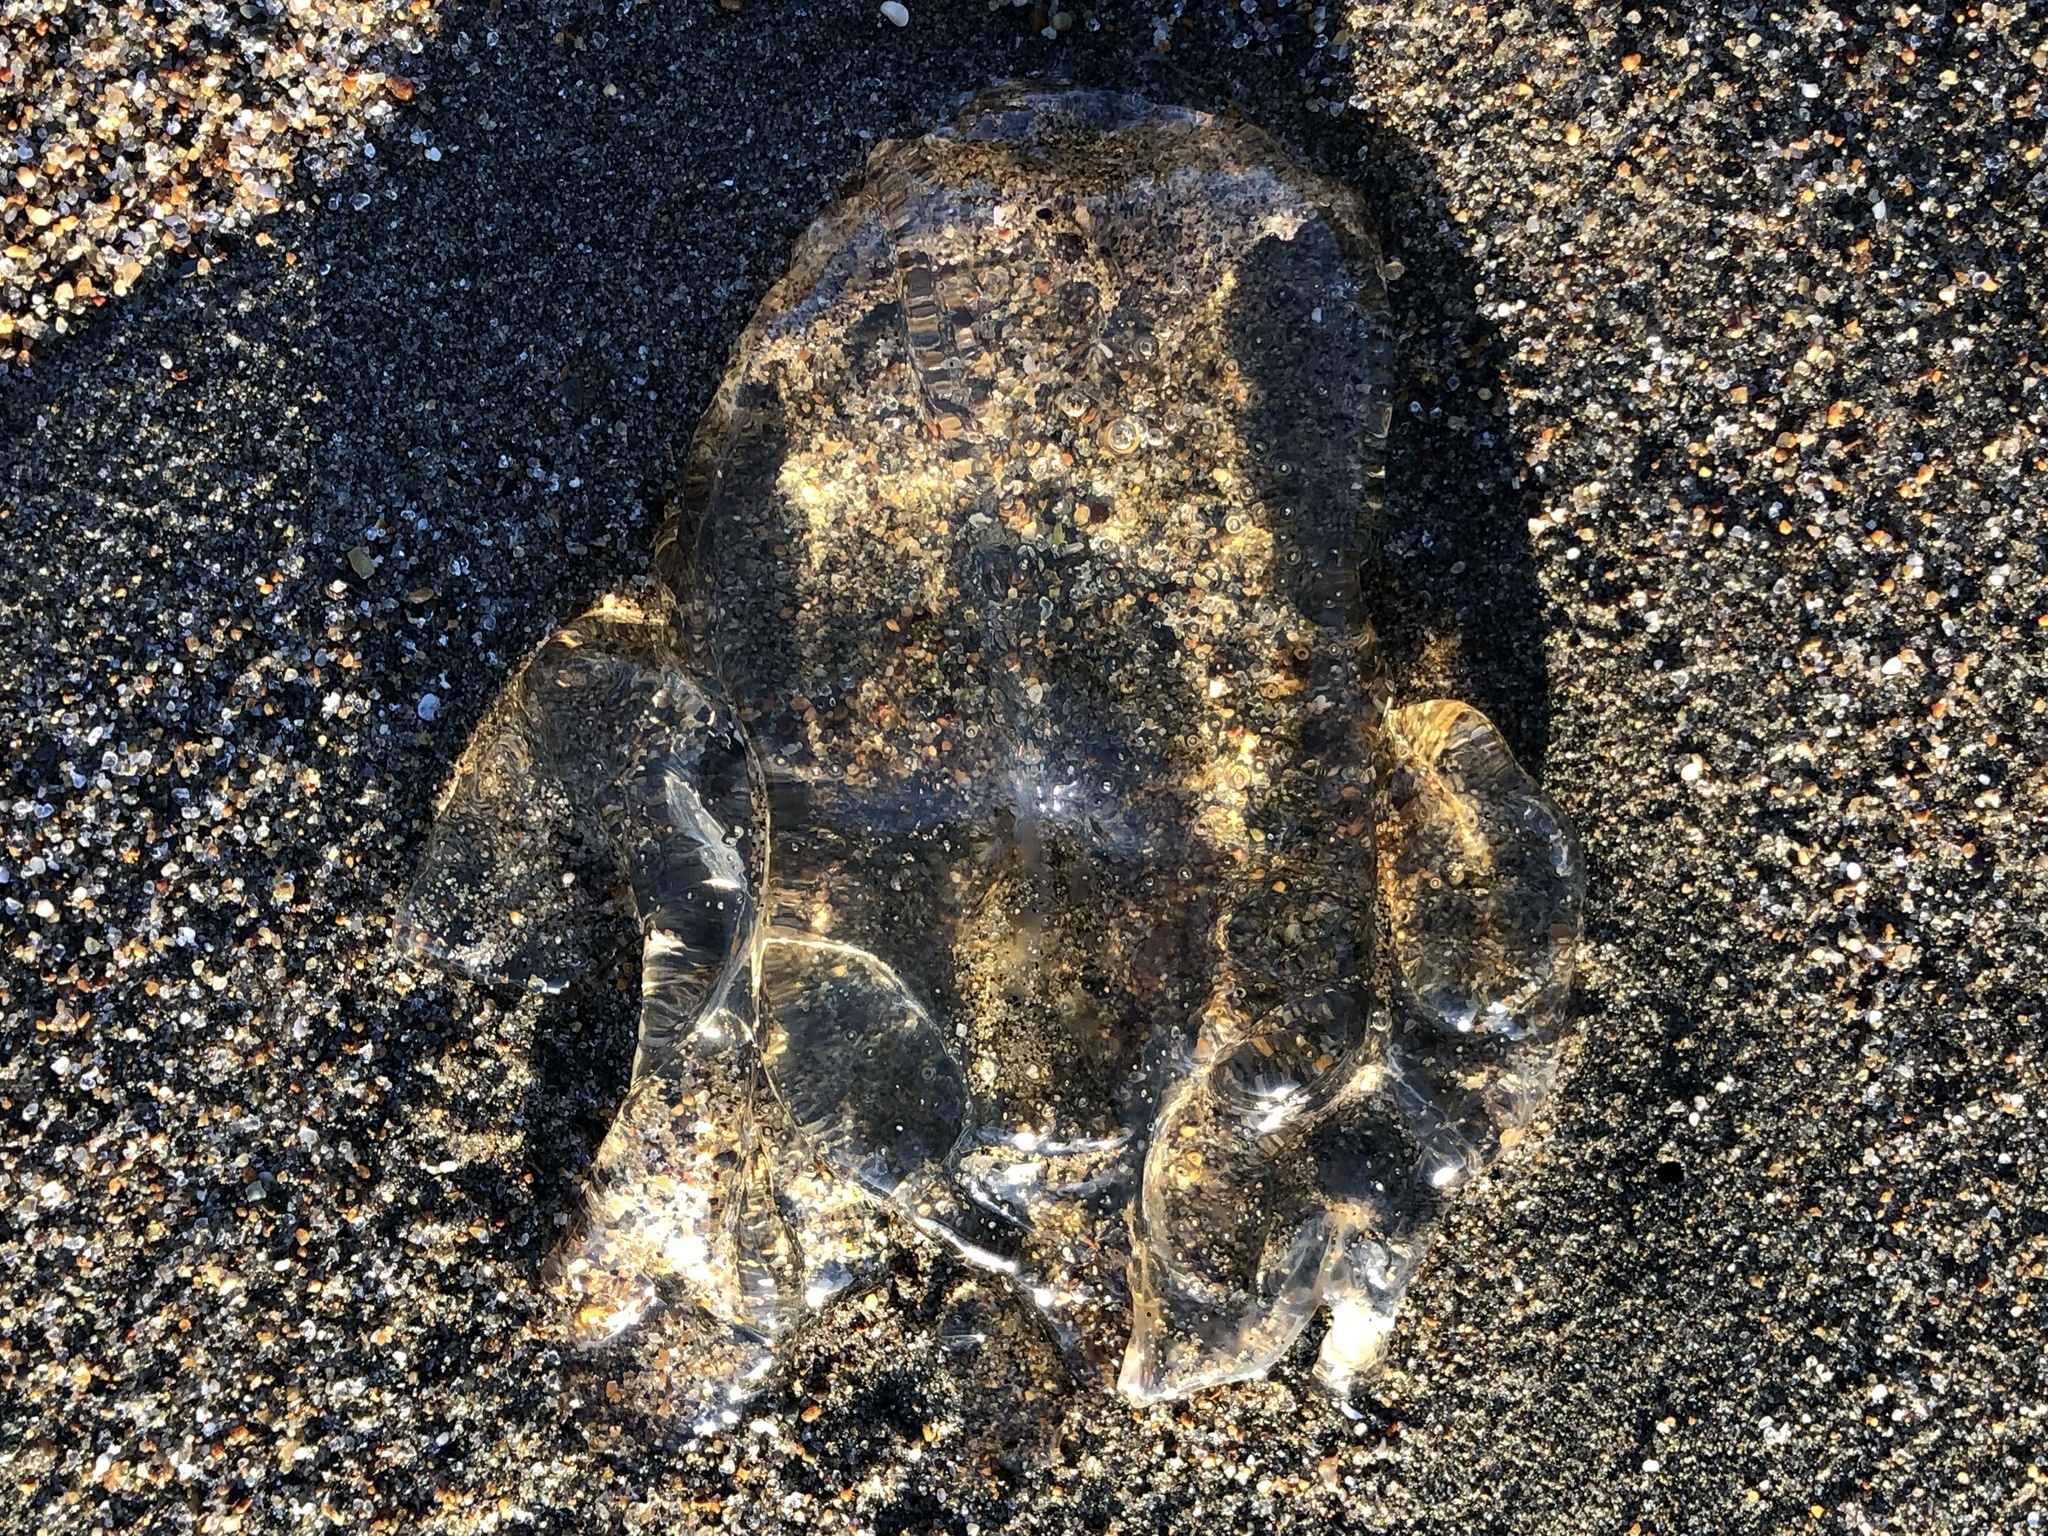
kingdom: Animalia
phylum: Cnidaria
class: Scyphozoa
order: Semaeostomeae
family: Pelagiidae
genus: Chrysaora
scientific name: Chrysaora fuscescens
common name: Sea nettle
